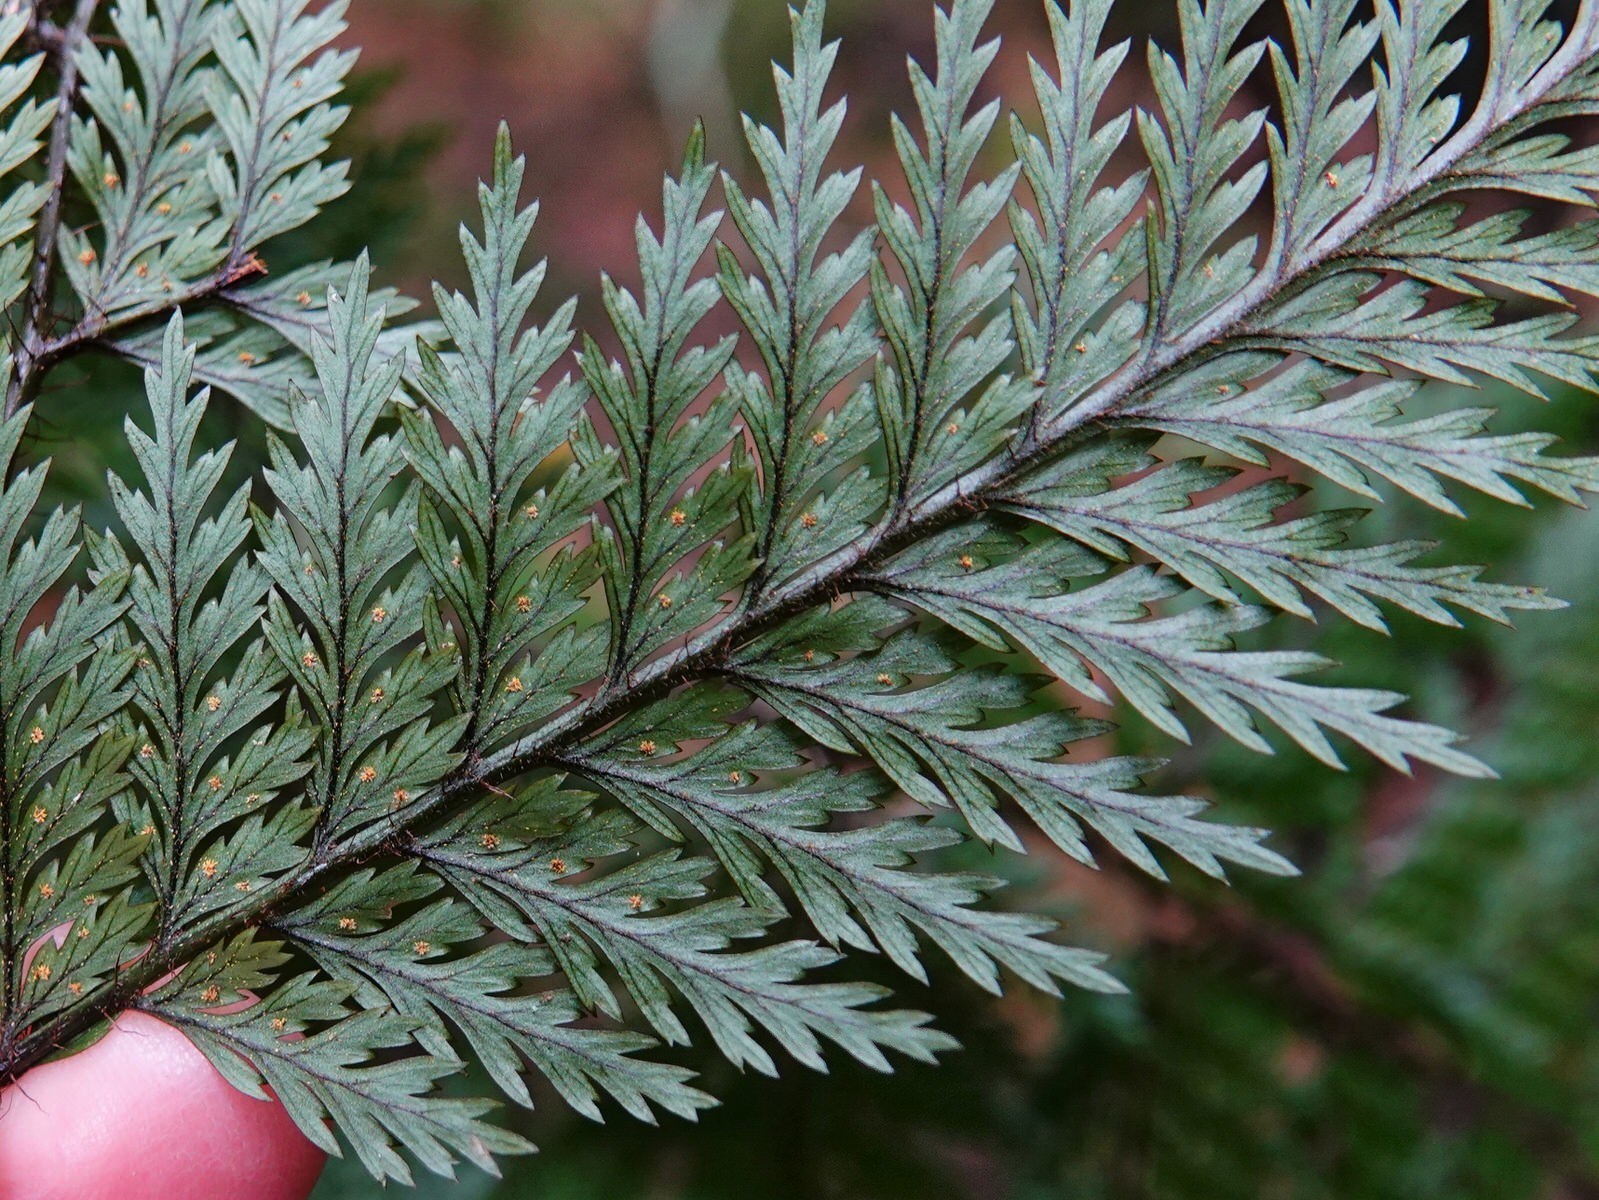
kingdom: Plantae
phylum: Tracheophyta
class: Polypodiopsida
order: Polypodiales
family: Dryopteridaceae
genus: Lastreopsis
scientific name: Lastreopsis hispida
